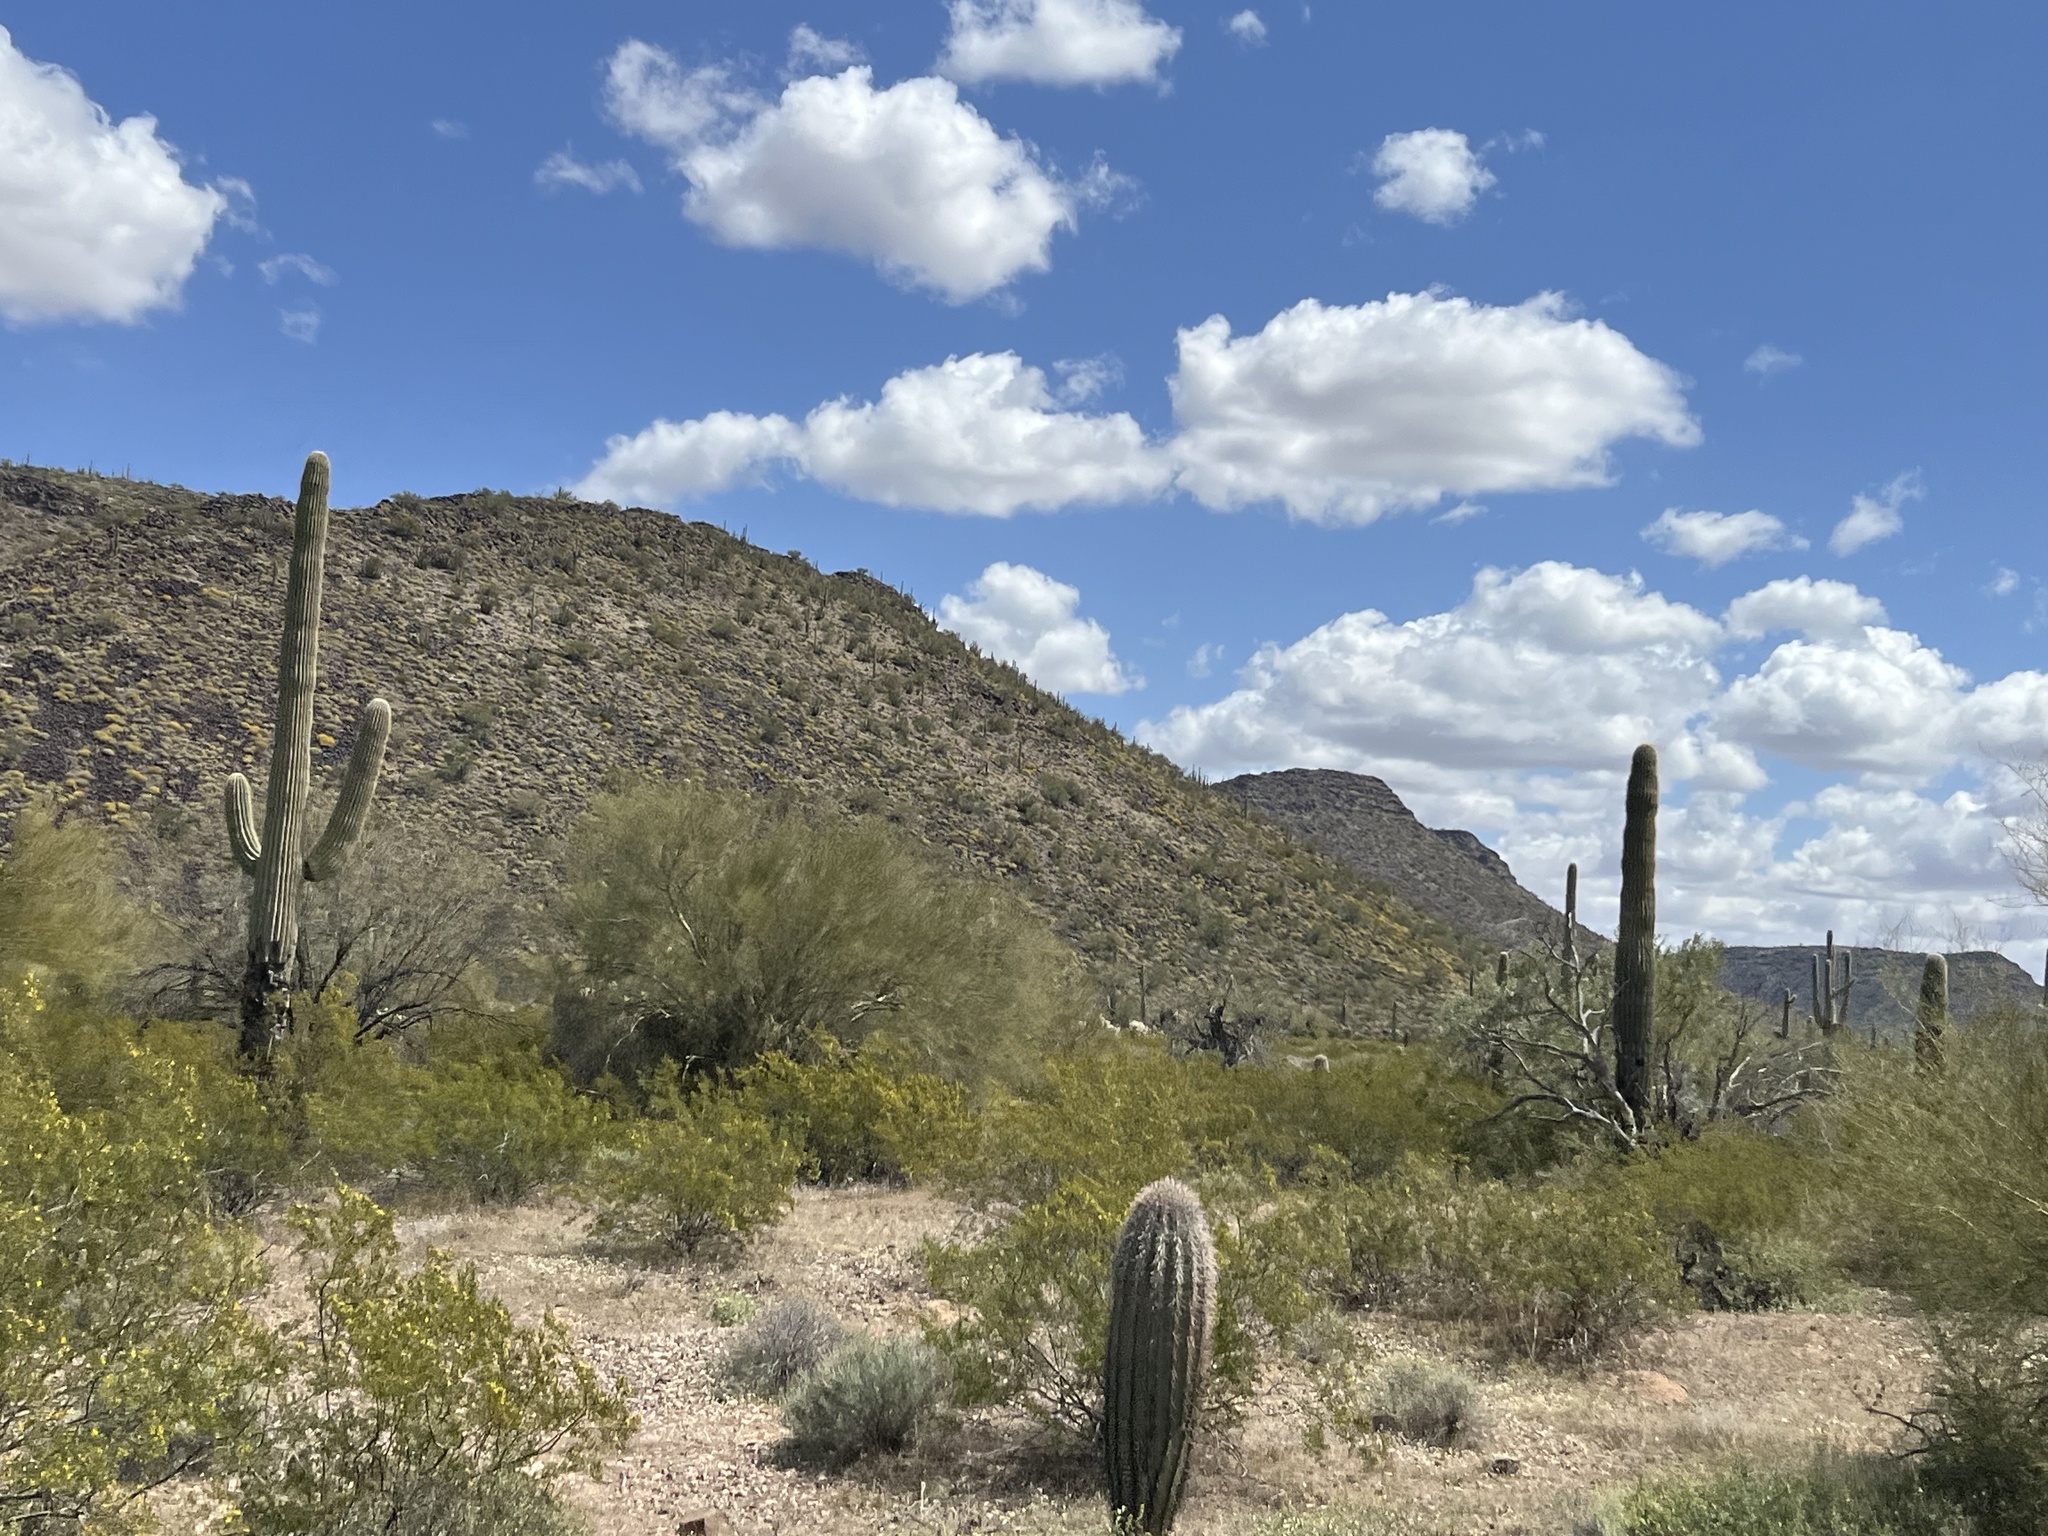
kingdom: Plantae
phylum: Tracheophyta
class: Magnoliopsida
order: Caryophyllales
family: Cactaceae
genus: Carnegiea
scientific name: Carnegiea gigantea
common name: Saguaro
